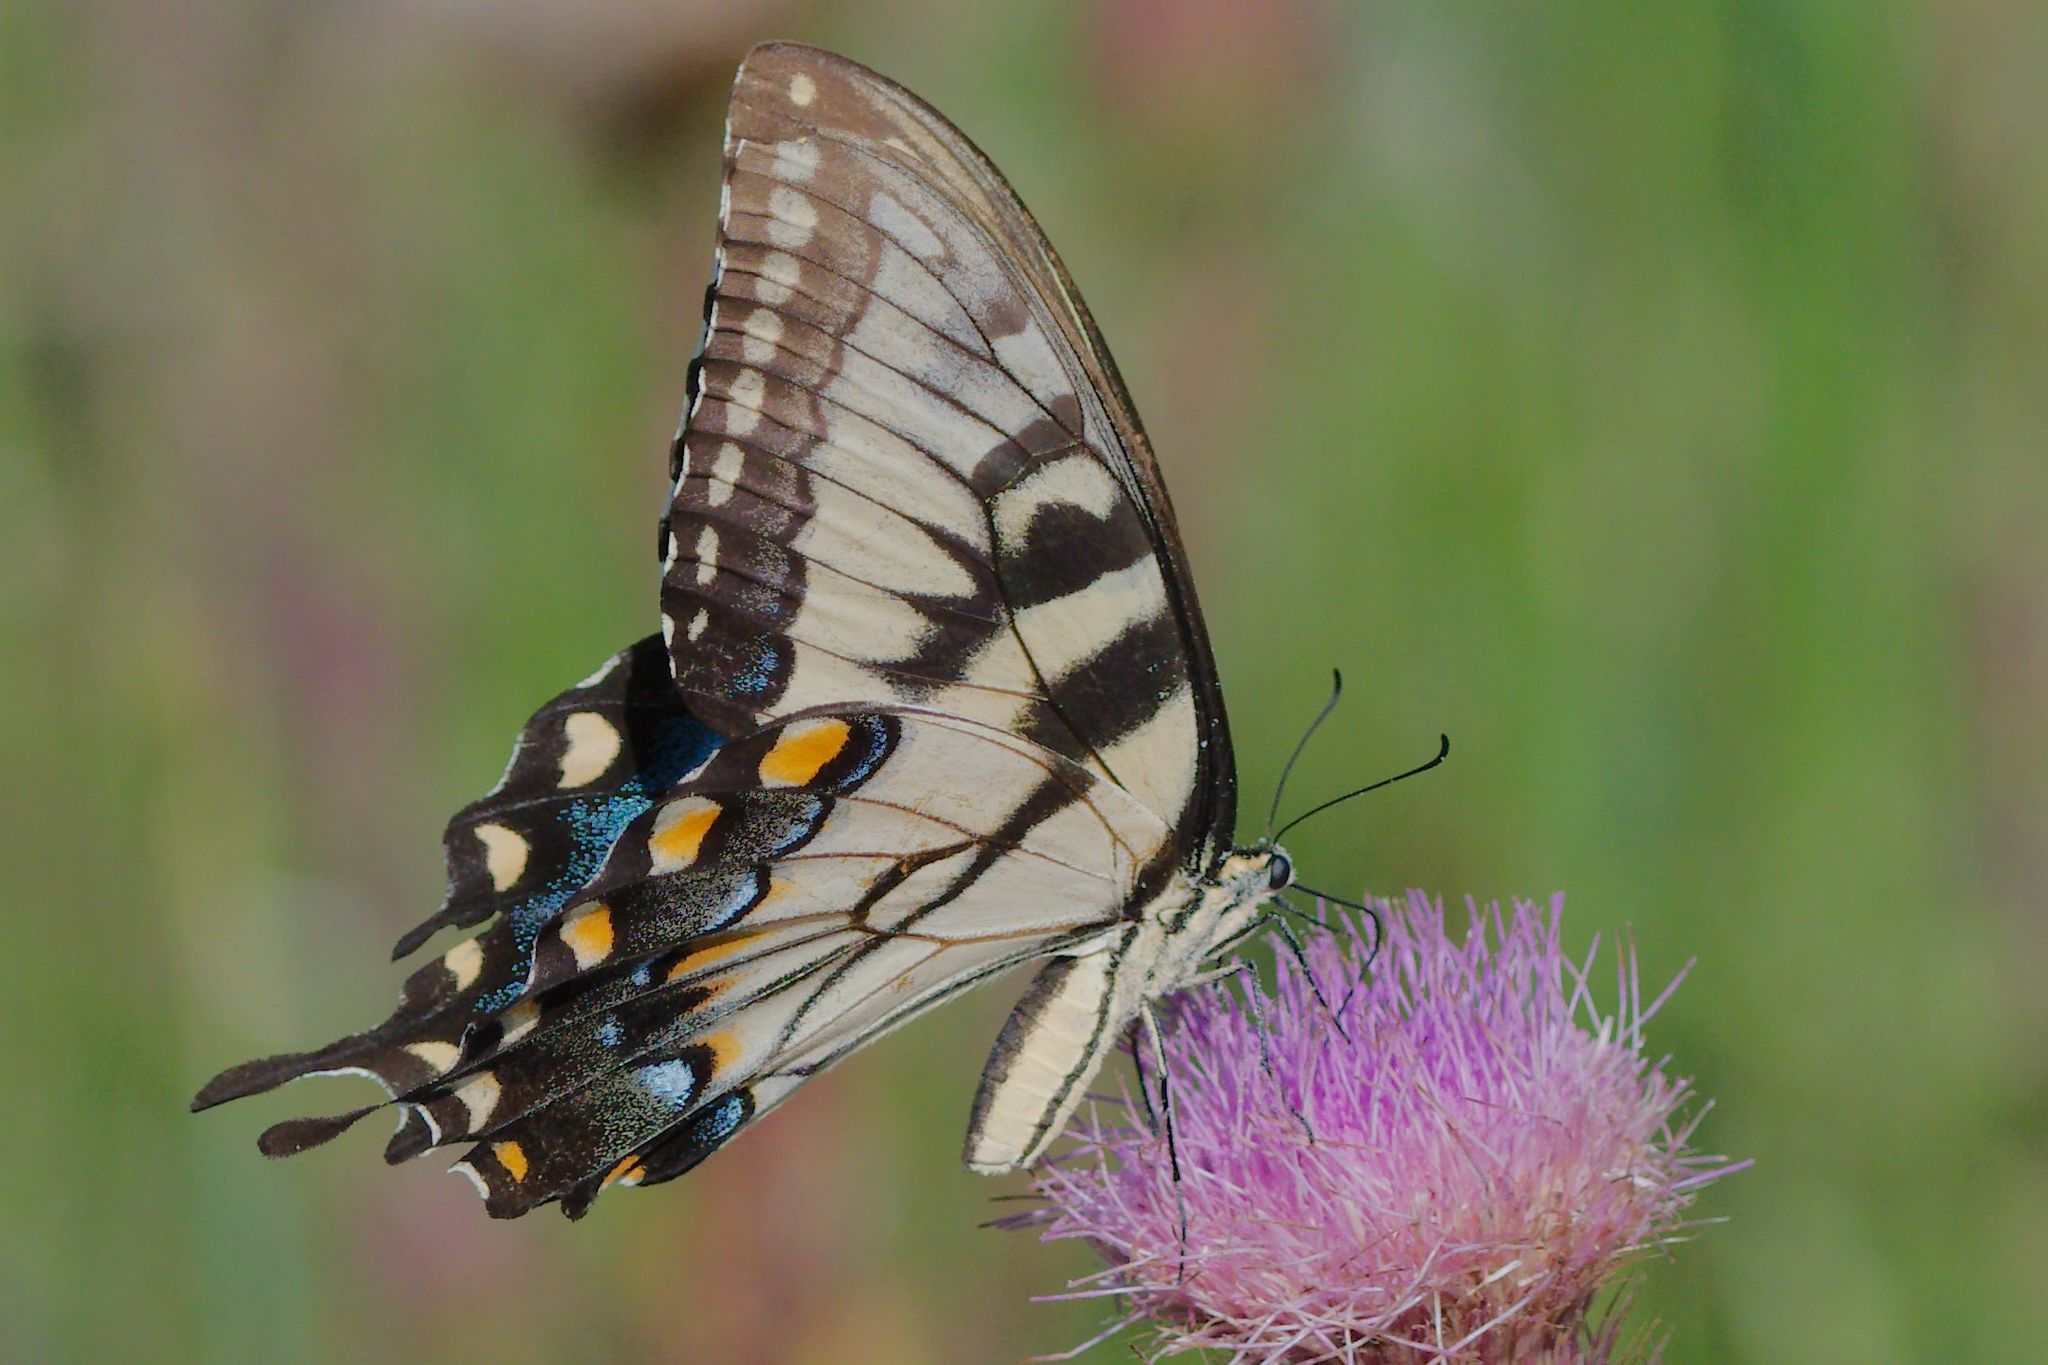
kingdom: Animalia
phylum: Arthropoda
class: Insecta
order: Lepidoptera
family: Papilionidae
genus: Papilio
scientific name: Papilio glaucus
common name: Tiger swallowtail
